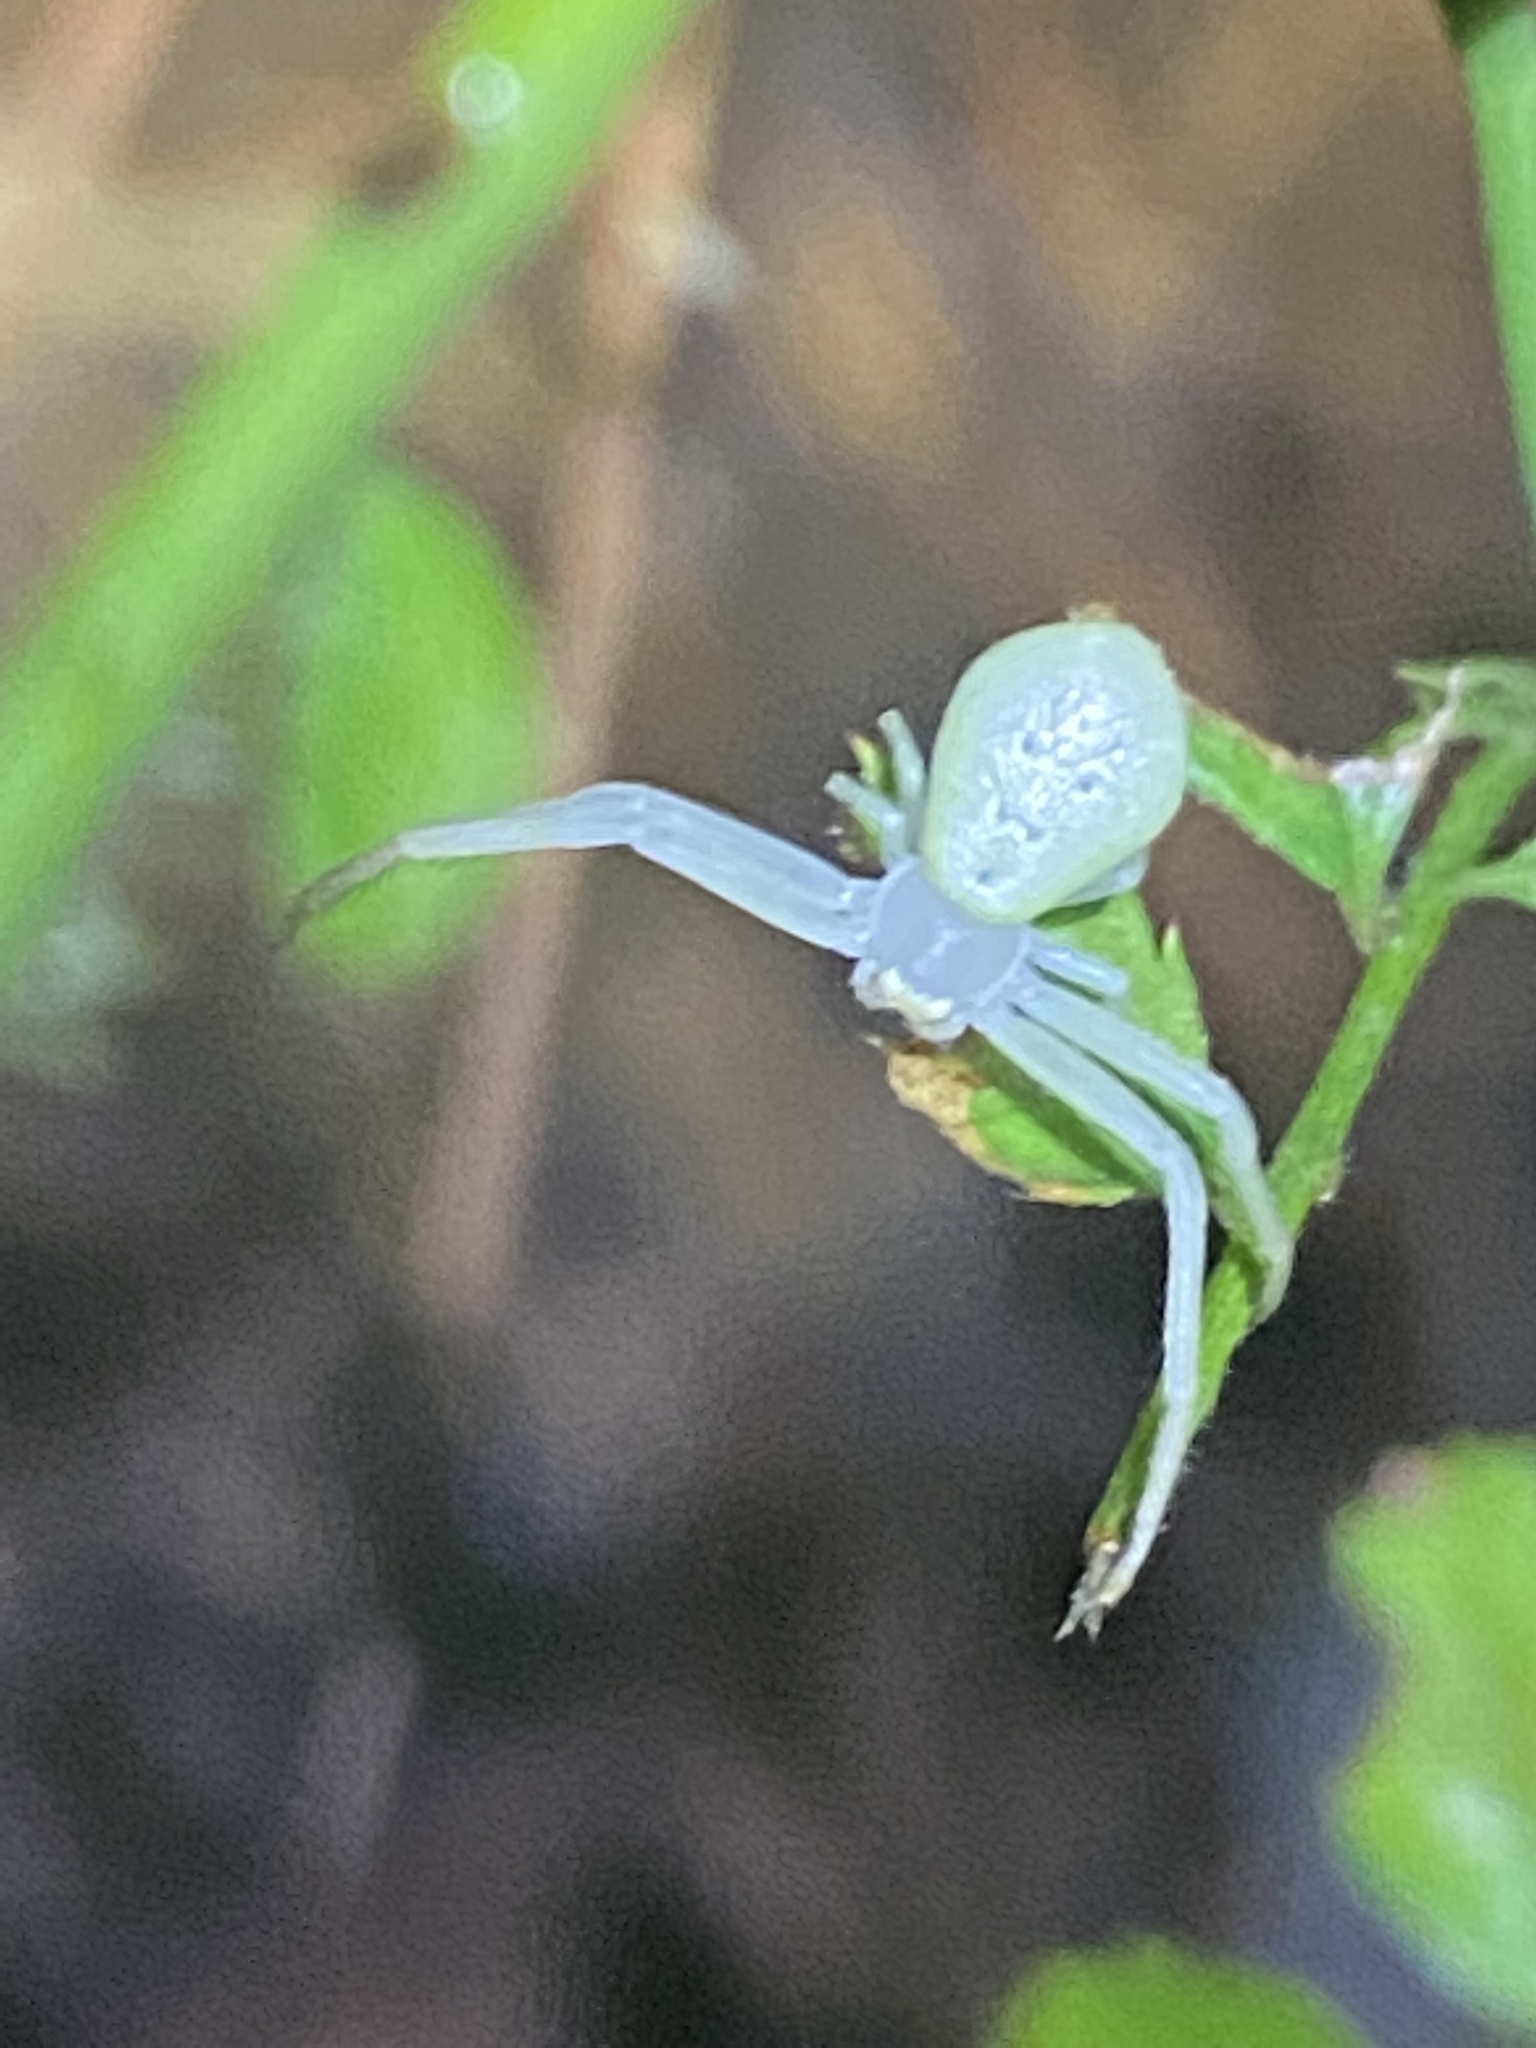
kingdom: Animalia
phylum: Arthropoda
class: Arachnida
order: Araneae
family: Thomisidae
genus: Misumessus
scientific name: Misumessus oblongus
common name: American green crab spider
